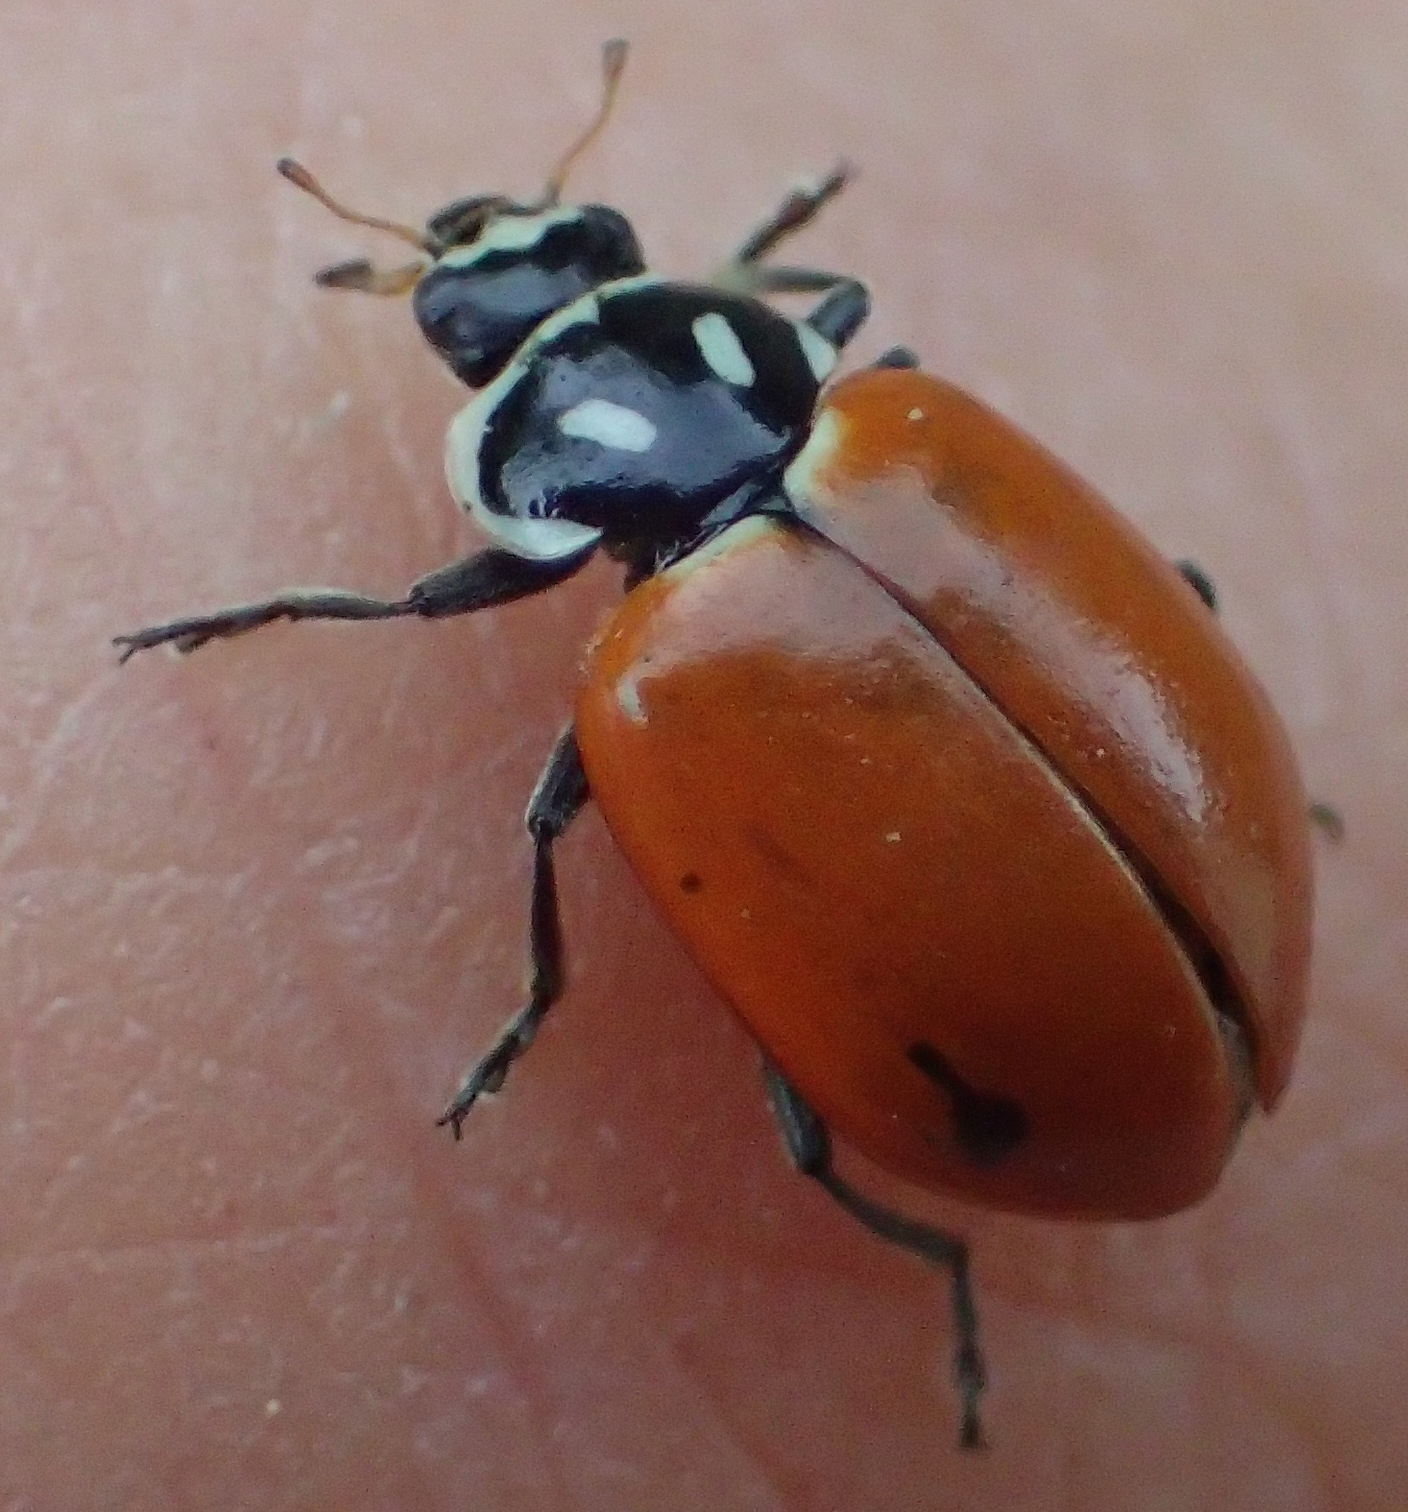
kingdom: Animalia
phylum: Arthropoda
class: Insecta
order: Coleoptera
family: Coccinellidae
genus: Hippodamia
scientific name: Hippodamia convergens
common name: Convergent lady beetle
